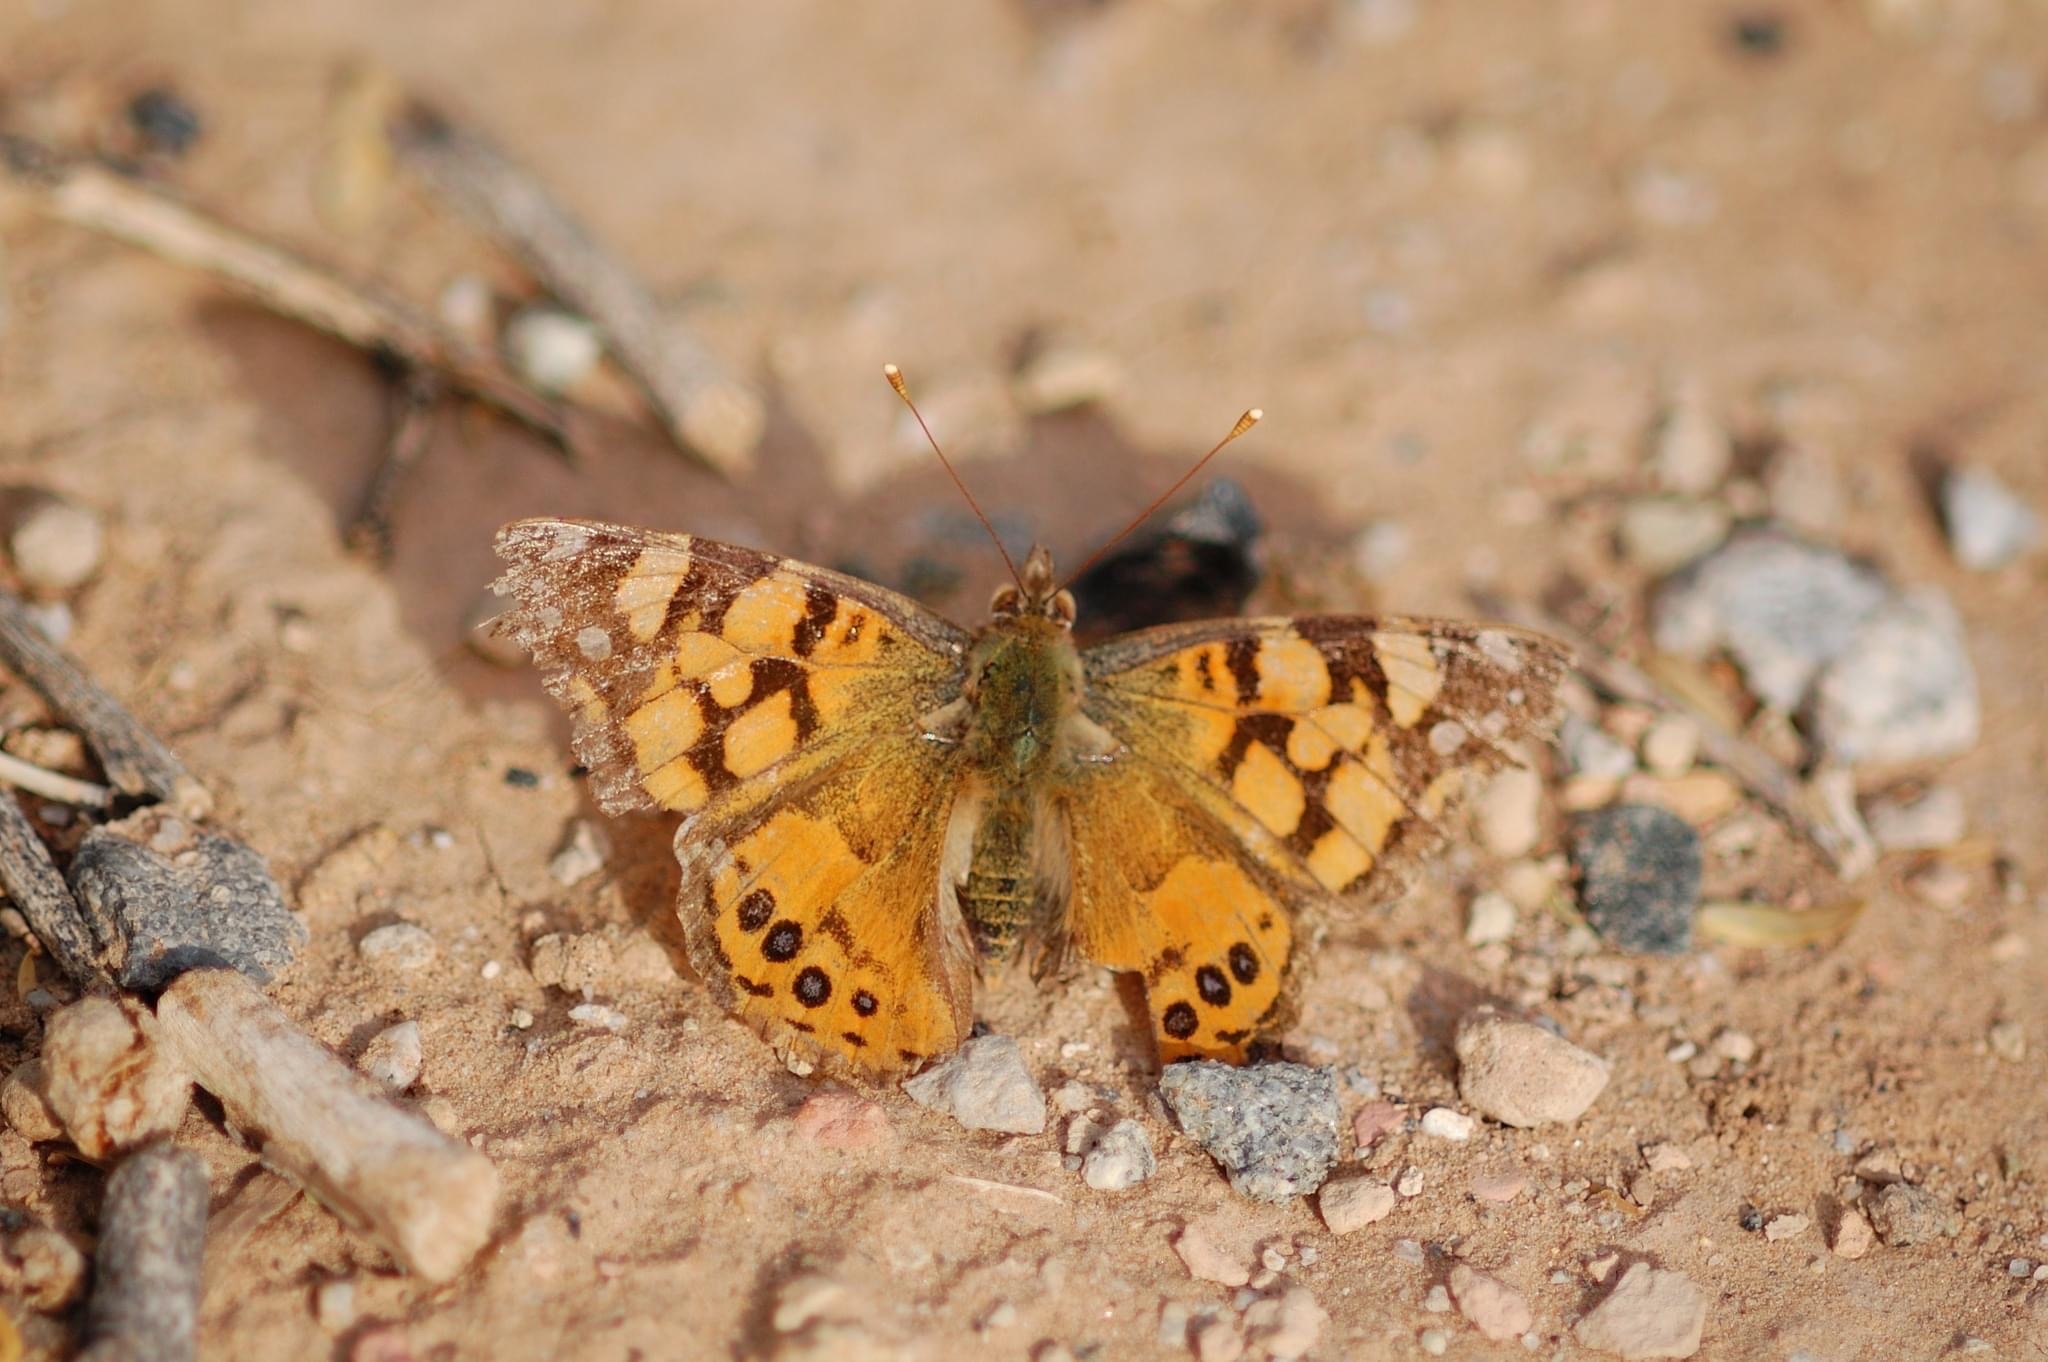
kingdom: Animalia
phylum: Arthropoda
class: Insecta
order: Lepidoptera
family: Nymphalidae
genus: Vanessa
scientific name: Vanessa annabella
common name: West coast lady
